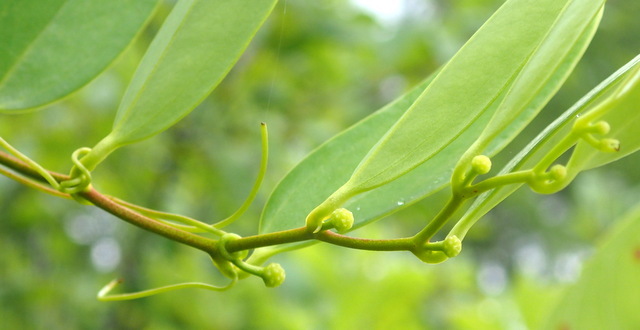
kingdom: Plantae
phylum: Tracheophyta
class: Liliopsida
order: Liliales
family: Smilacaceae
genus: Smilax
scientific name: Smilax laurifolia
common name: Bamboovine
